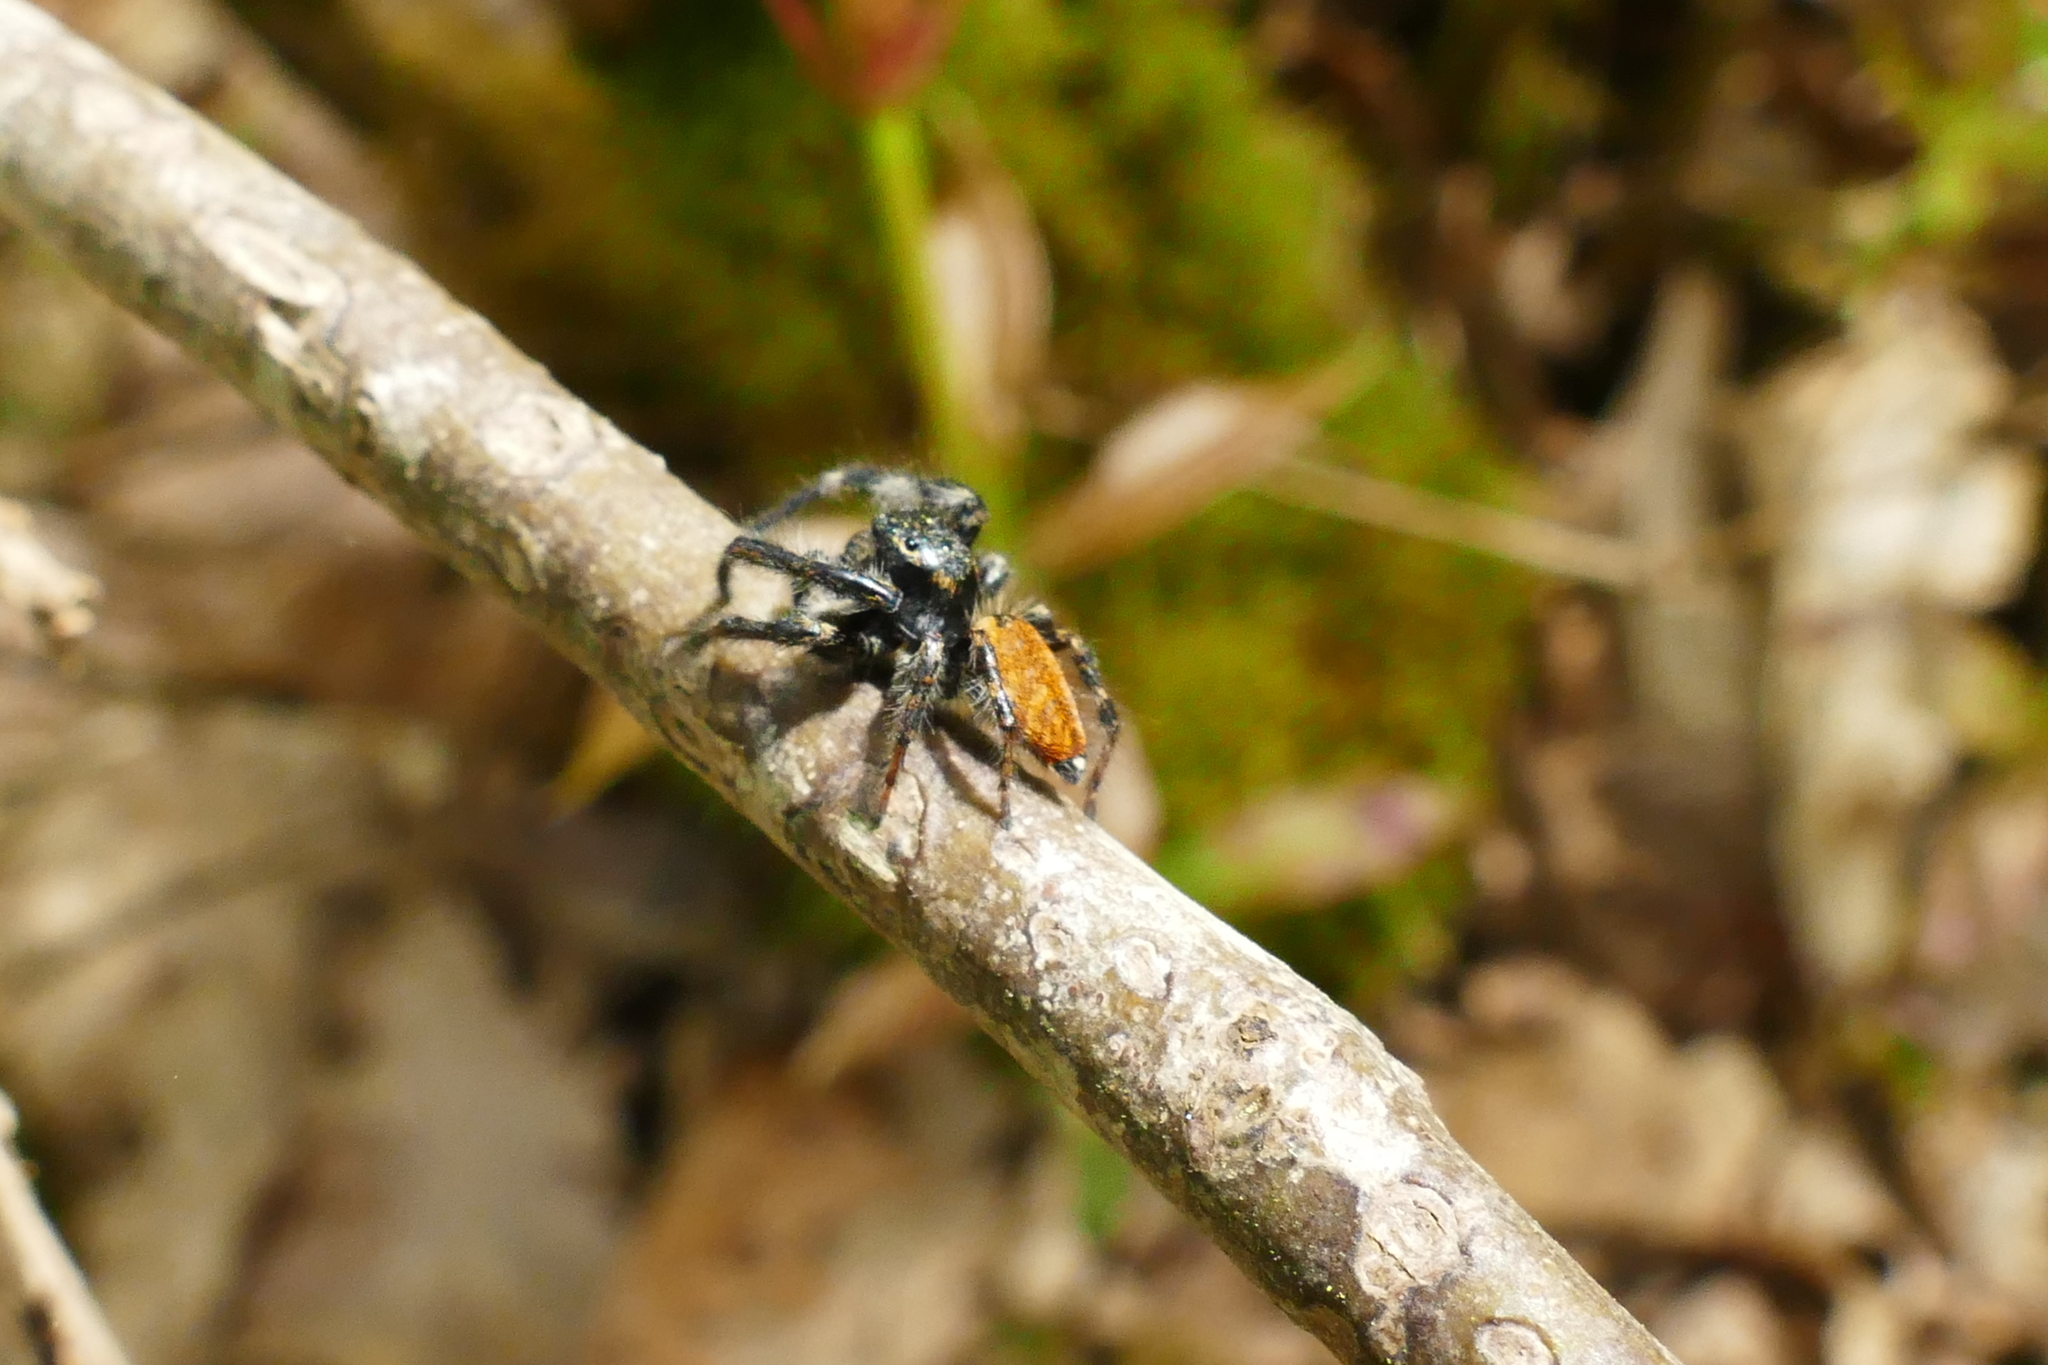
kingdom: Animalia
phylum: Arthropoda
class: Arachnida
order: Araneae
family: Salticidae
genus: Carrhotus
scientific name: Carrhotus xanthogramma
